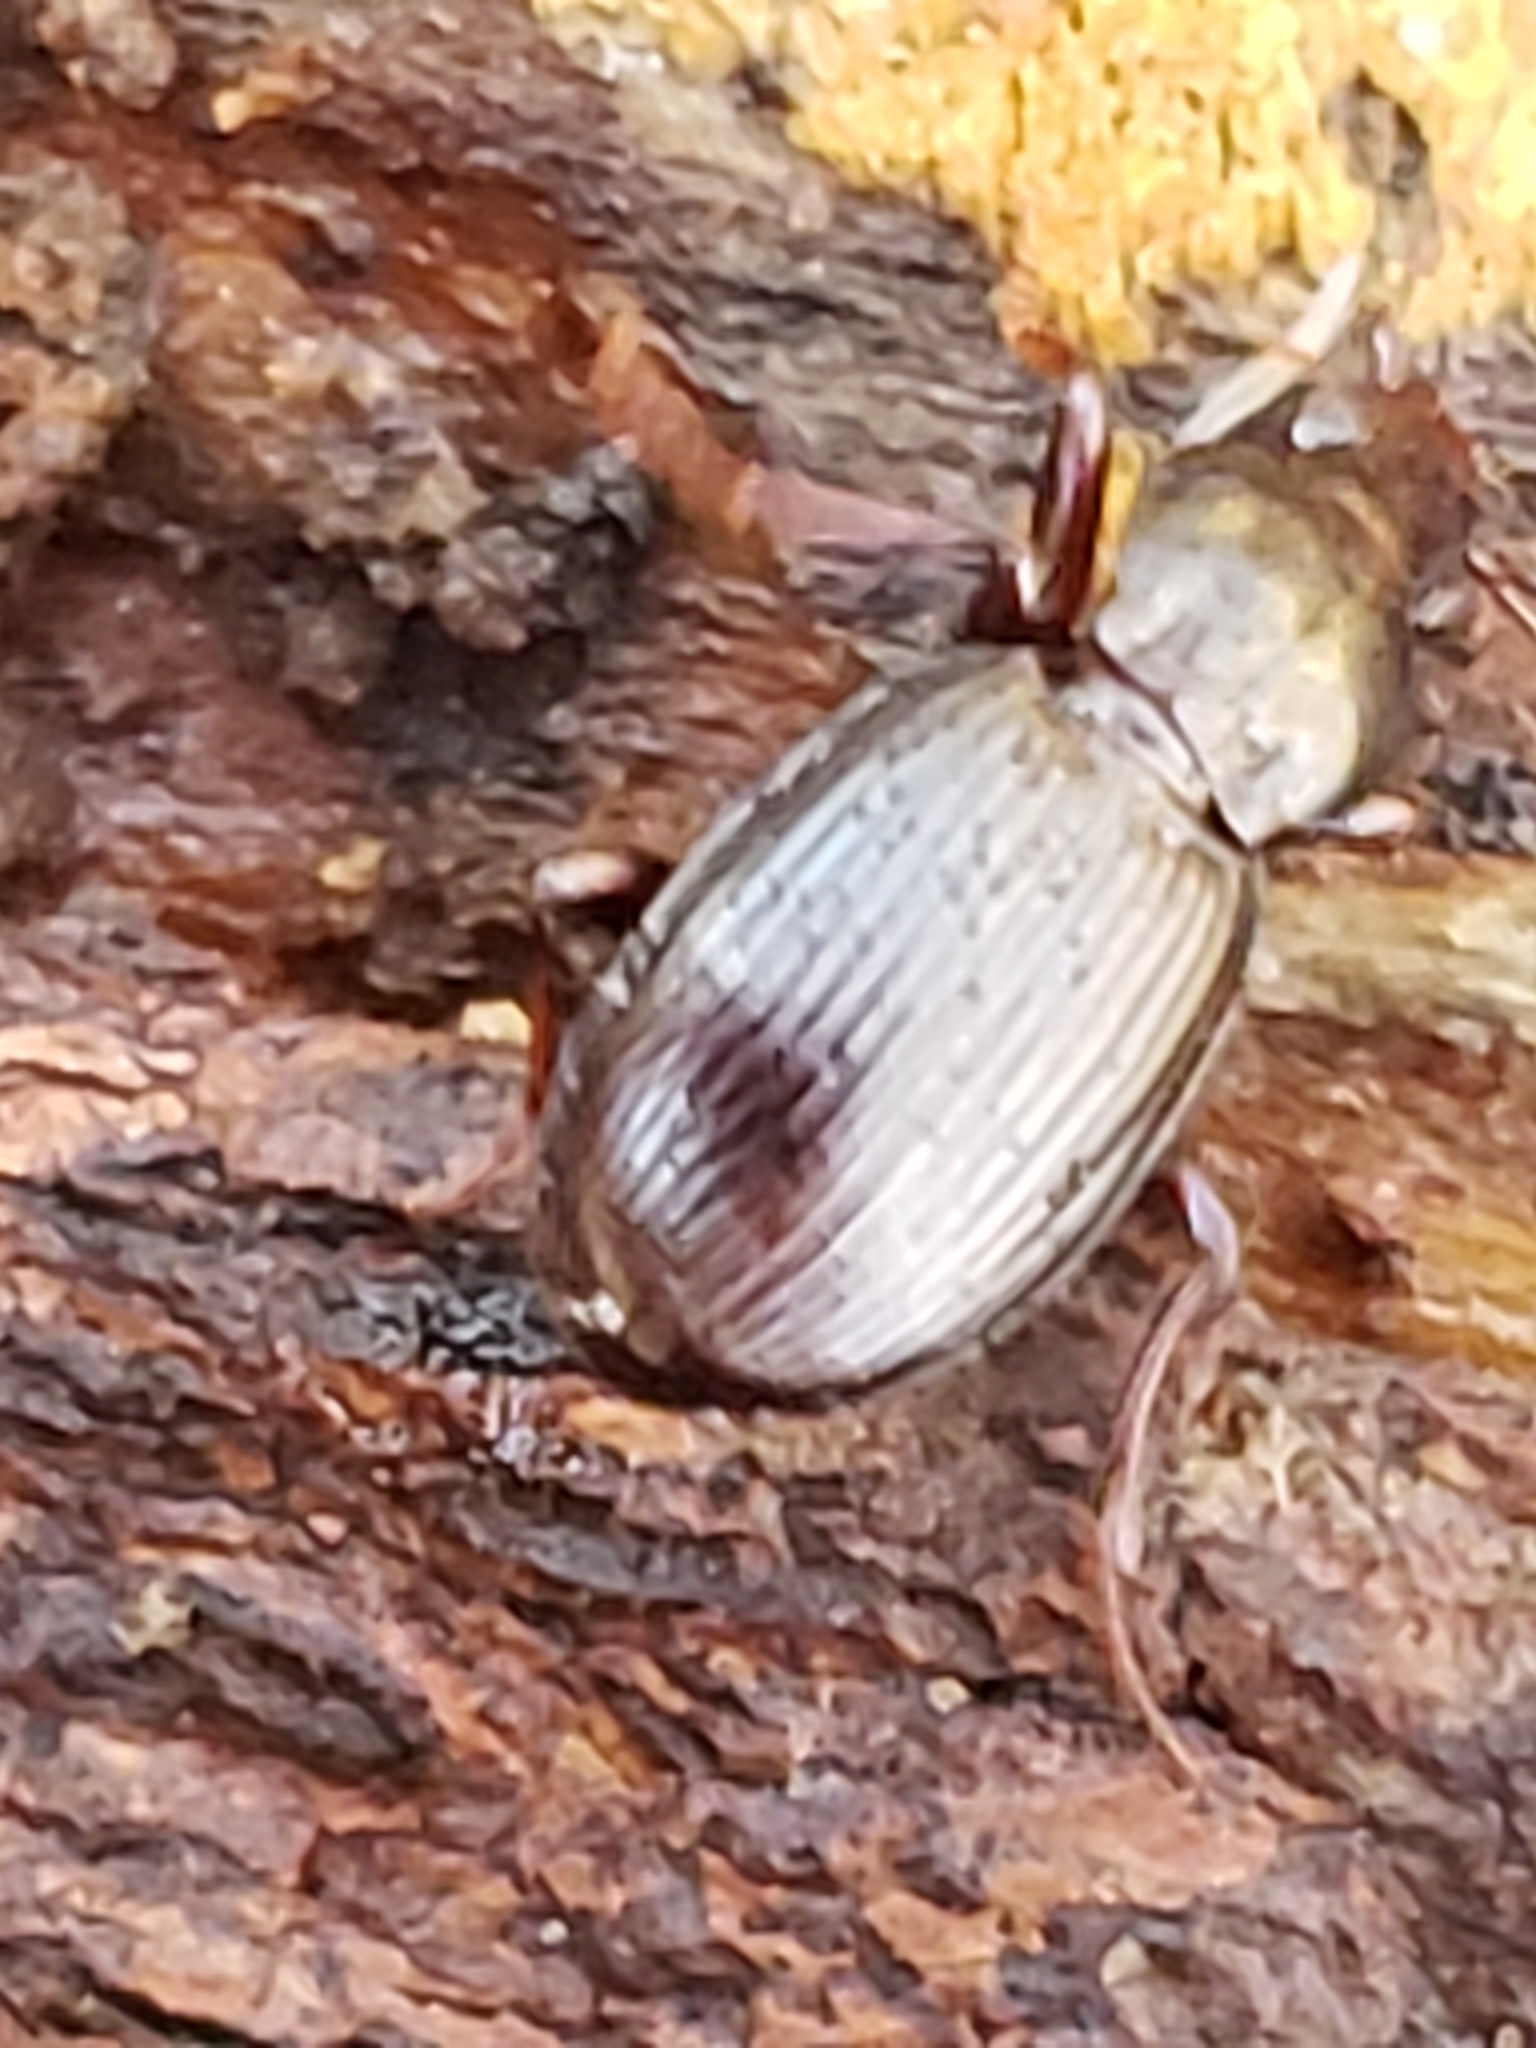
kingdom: Animalia
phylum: Arthropoda
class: Insecta
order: Coleoptera
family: Carabidae
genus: Gastrellarius
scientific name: Gastrellarius honestus
